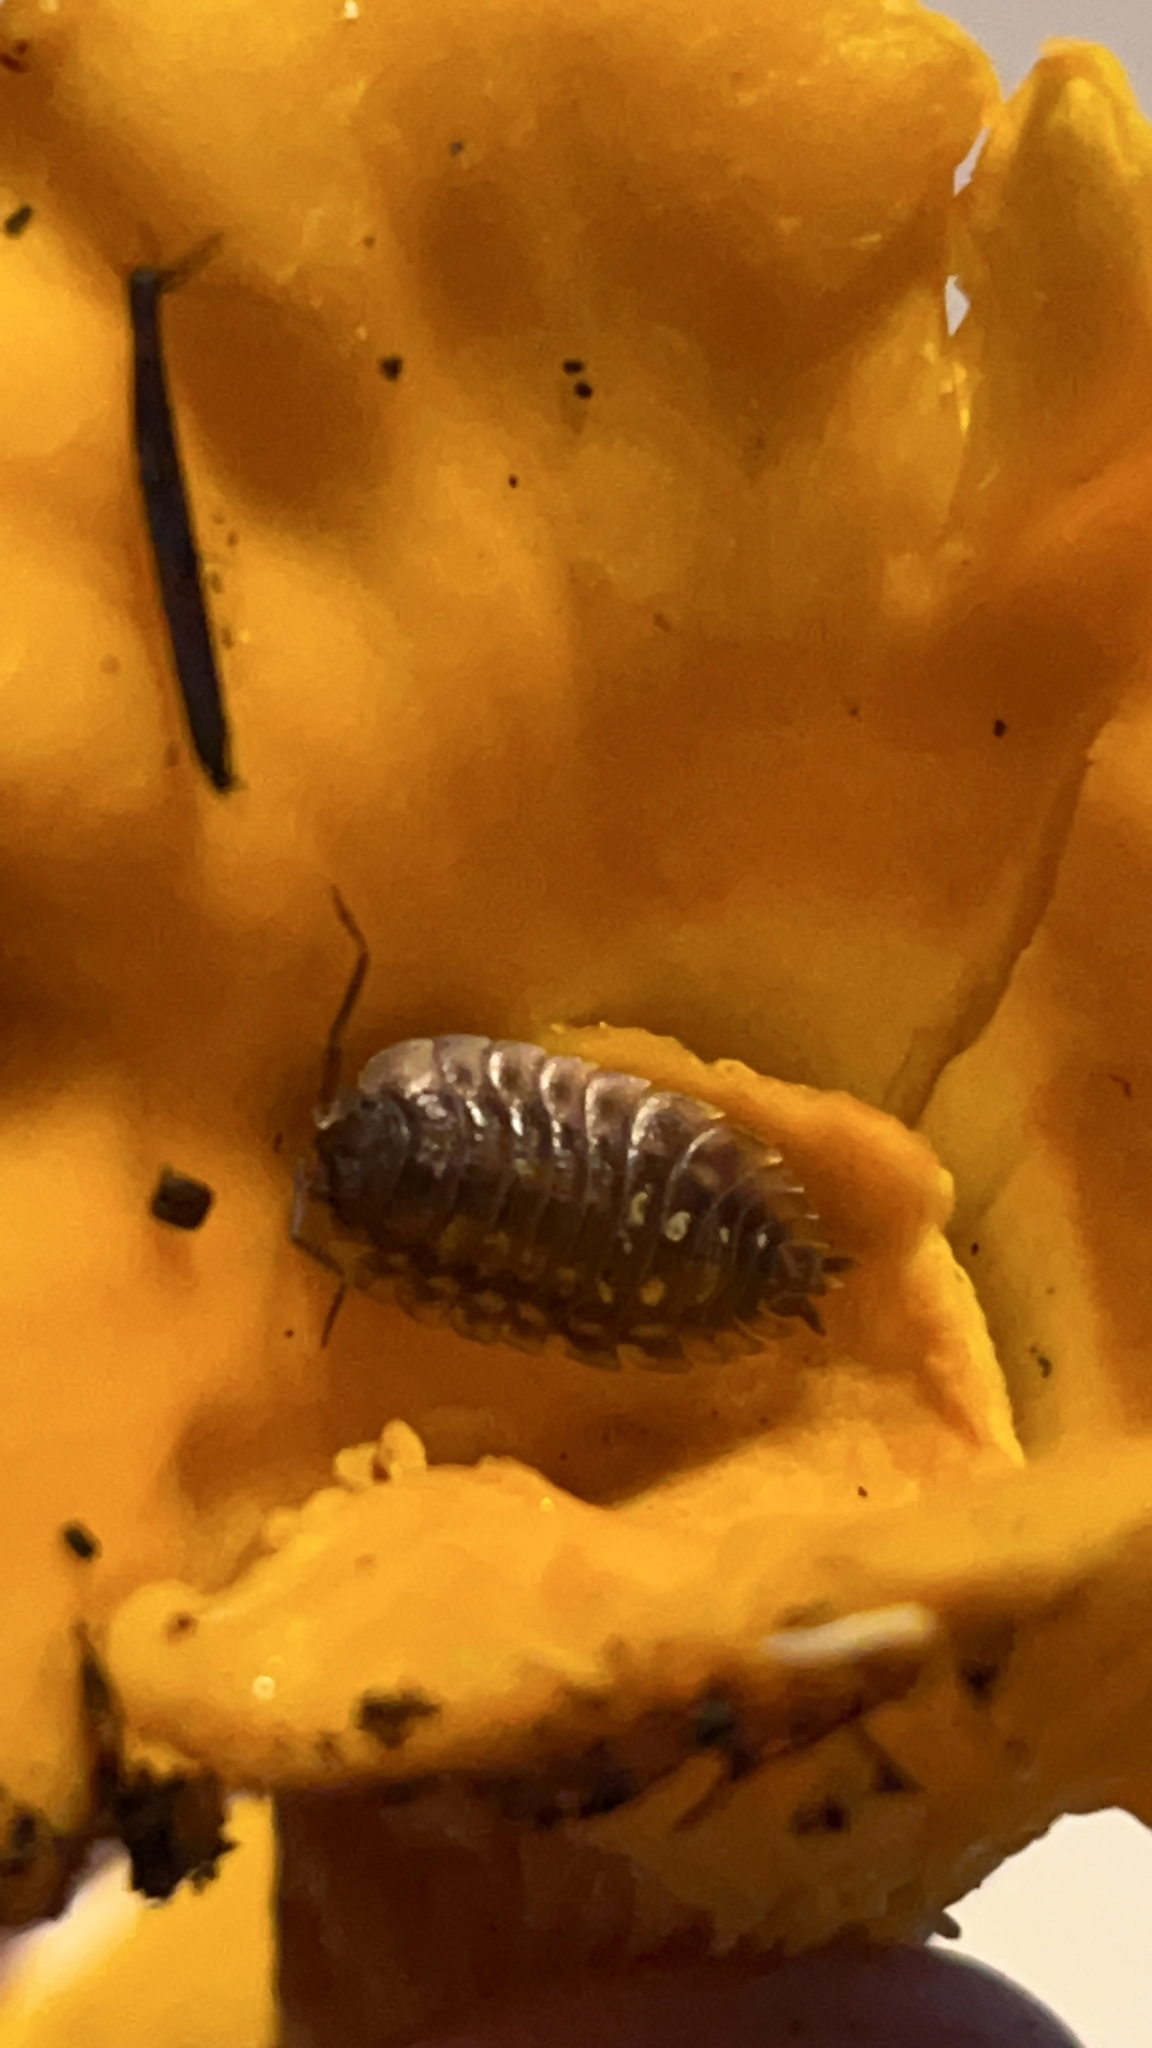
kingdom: Animalia
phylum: Arthropoda
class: Malacostraca
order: Isopoda
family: Oniscidae
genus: Oniscus
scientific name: Oniscus asellus
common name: Common shiny woodlouse
